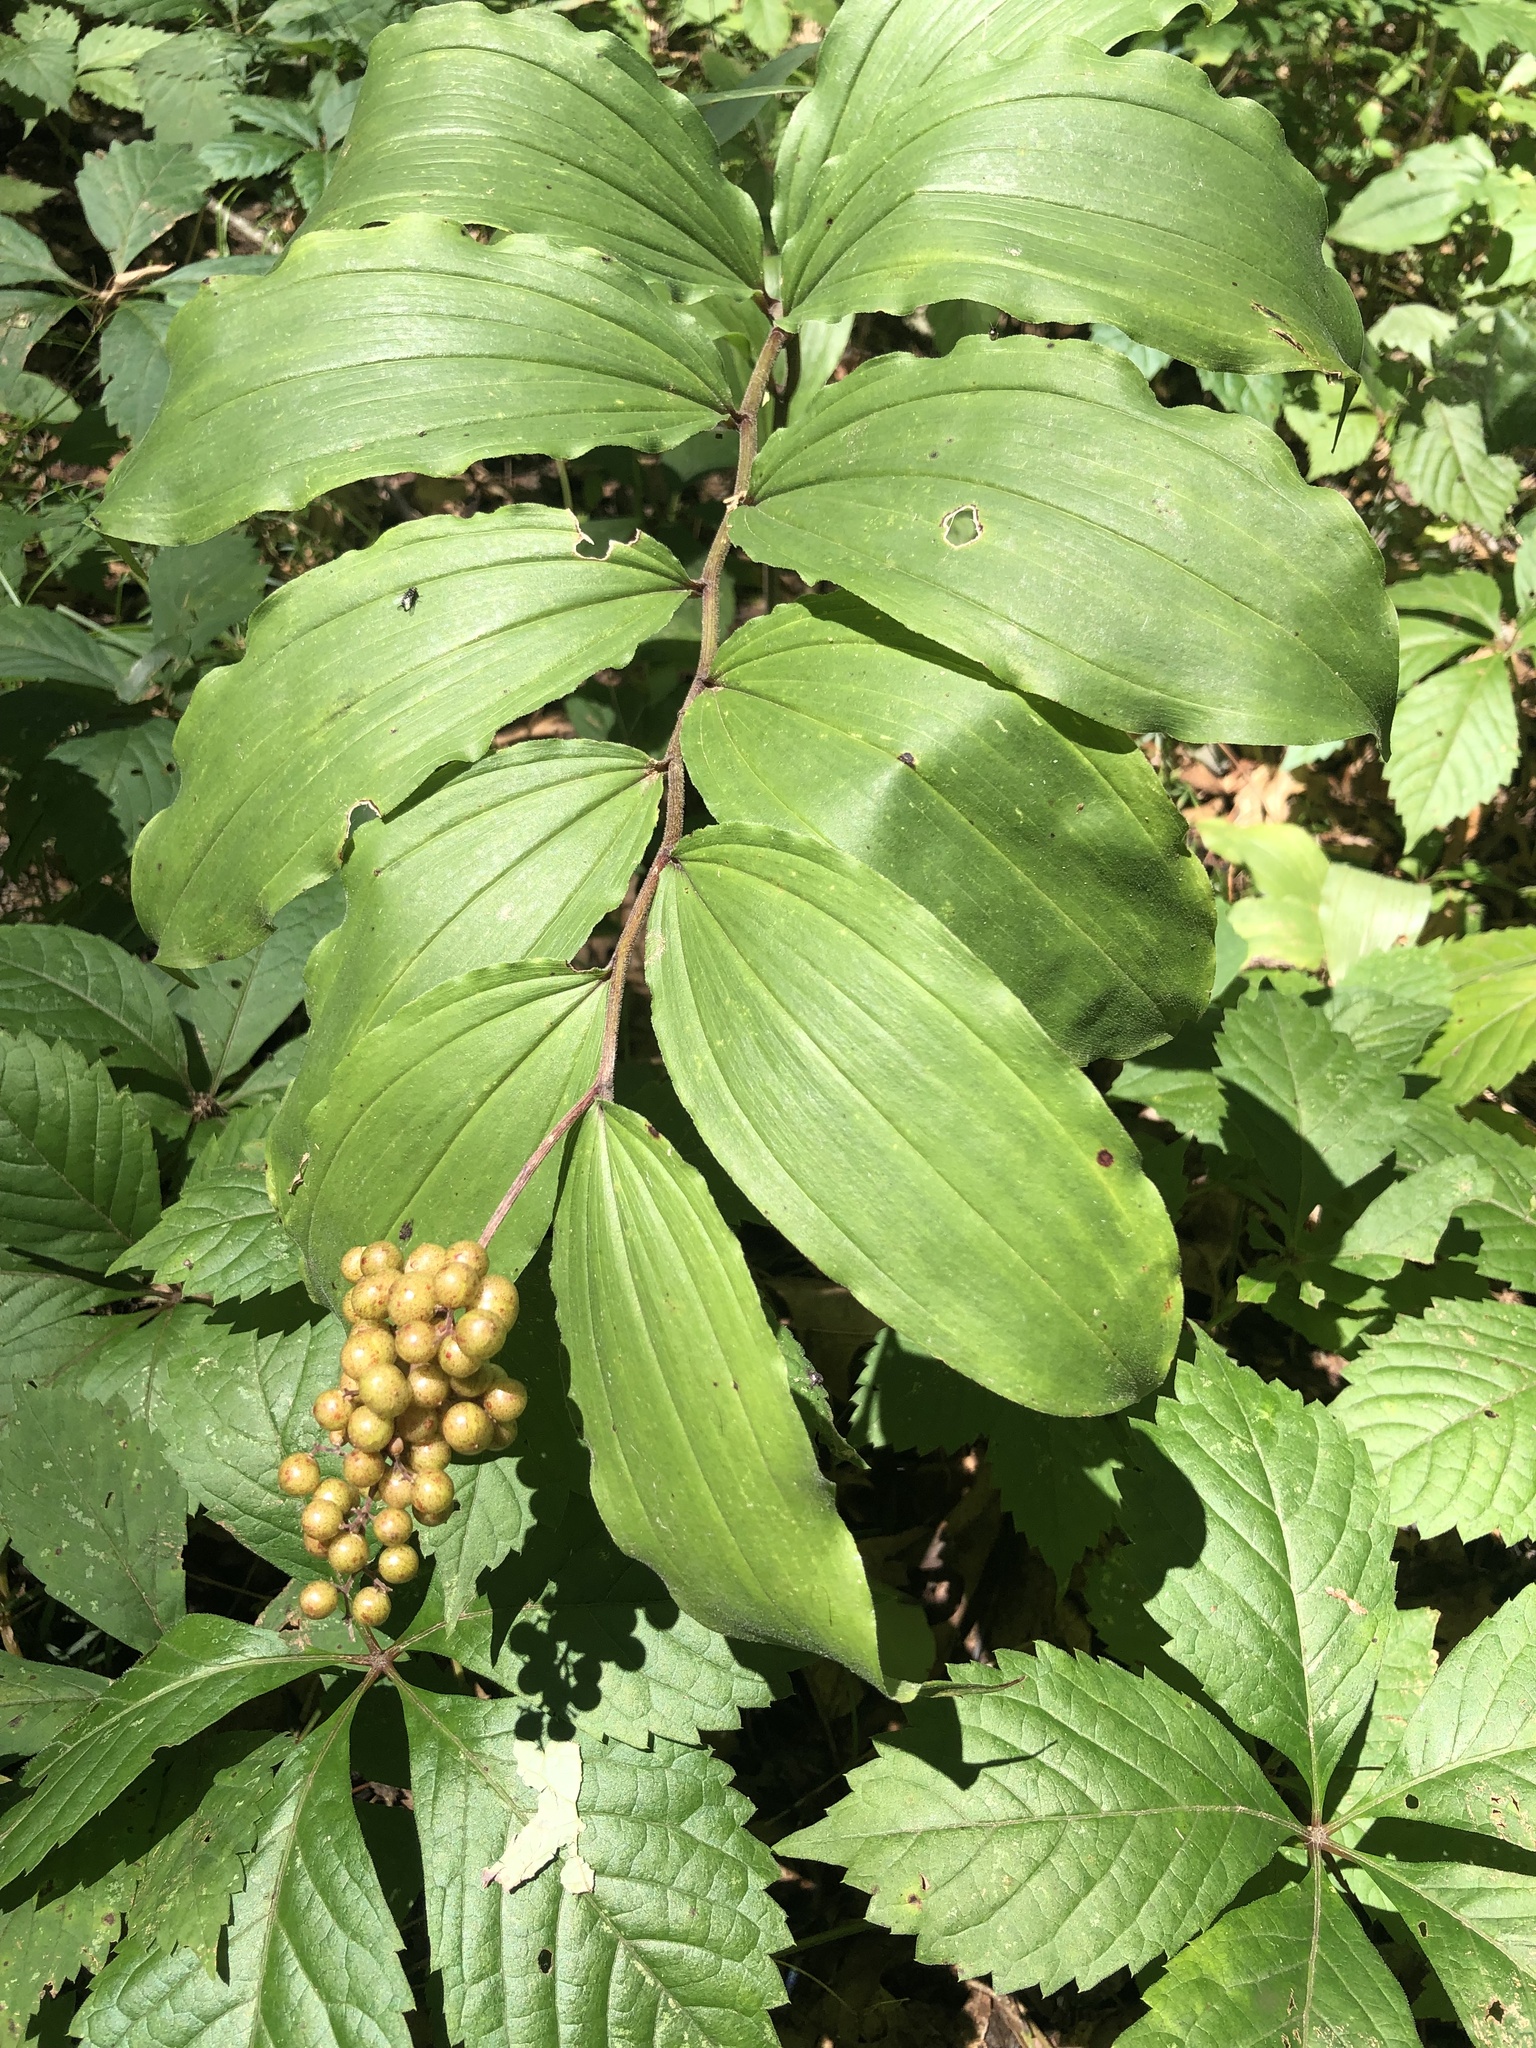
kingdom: Plantae
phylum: Tracheophyta
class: Liliopsida
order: Asparagales
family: Asparagaceae
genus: Maianthemum
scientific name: Maianthemum racemosum
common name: False spikenard
